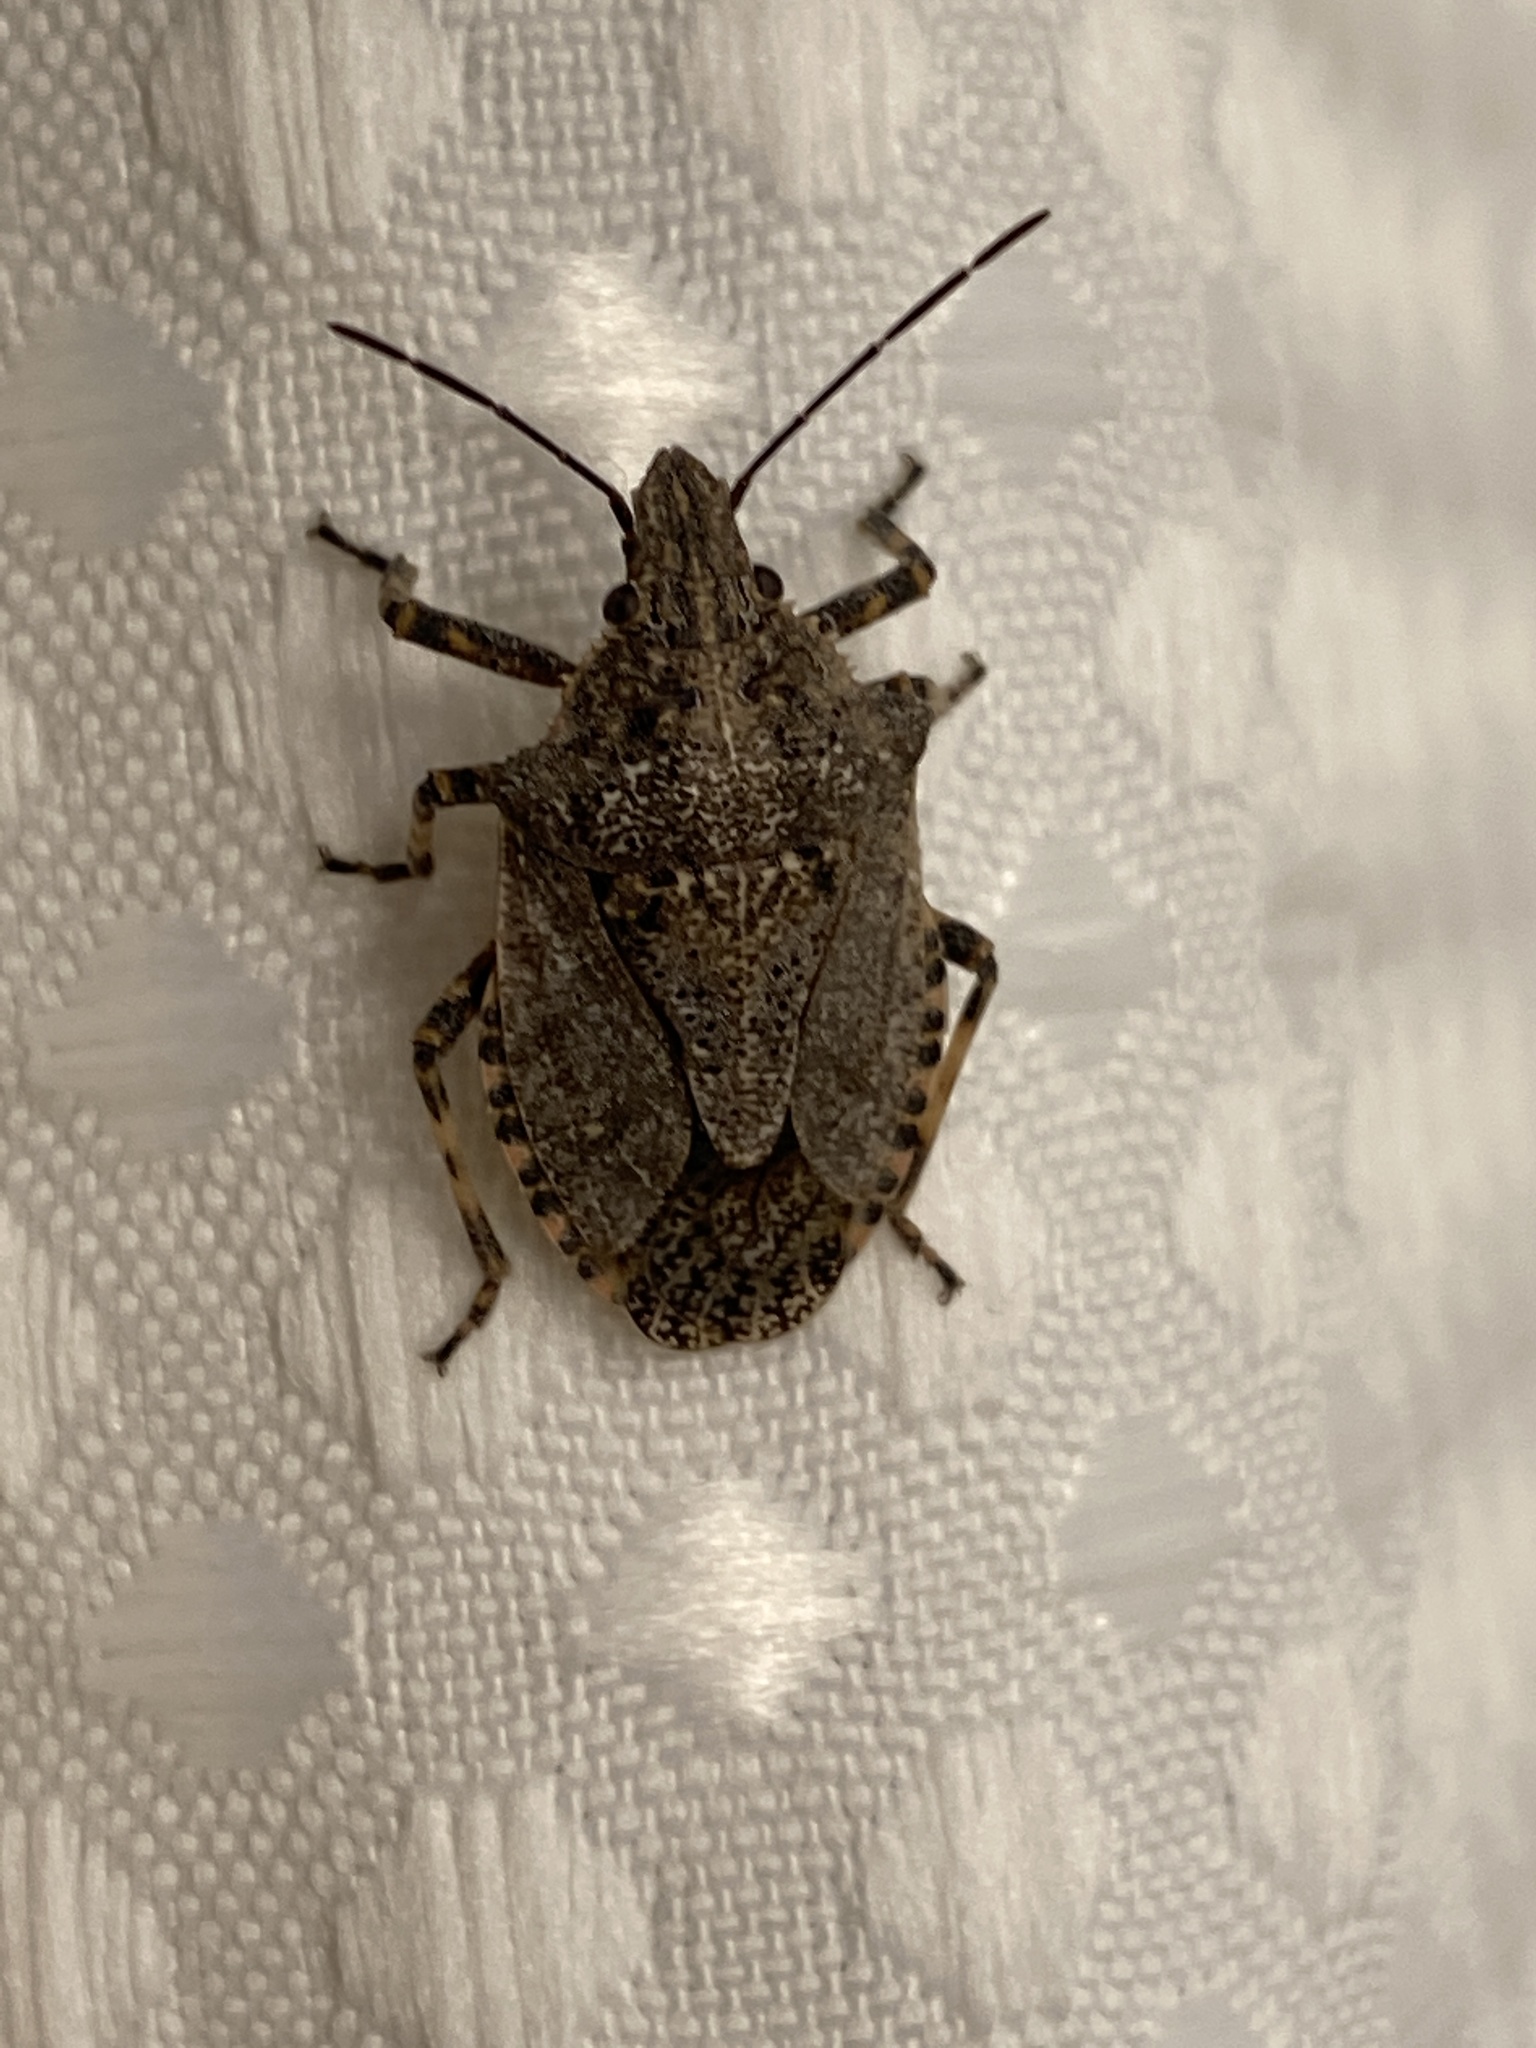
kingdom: Animalia
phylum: Arthropoda
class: Insecta
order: Hemiptera
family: Pentatomidae
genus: Brochymena
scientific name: Brochymena
